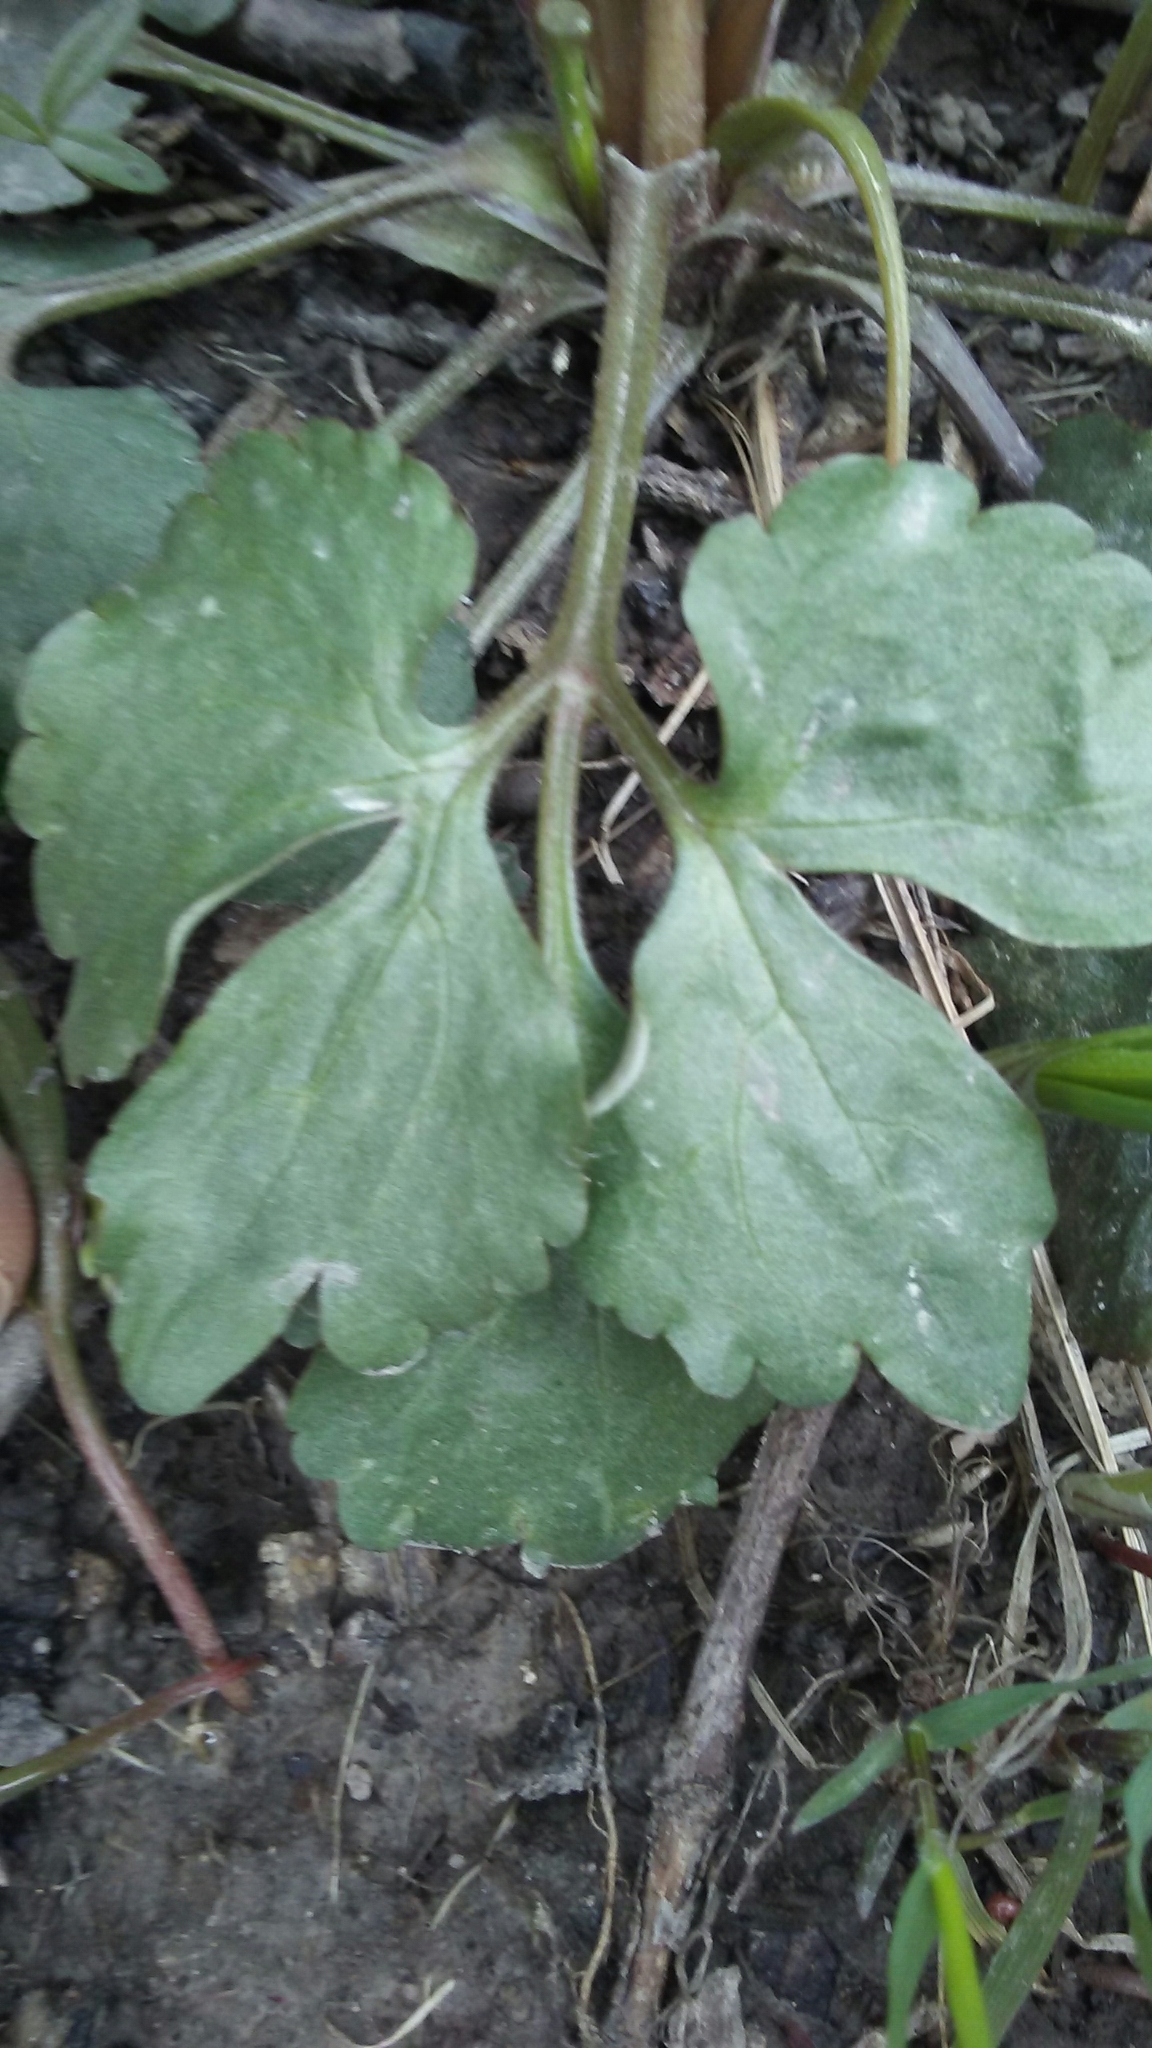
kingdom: Plantae
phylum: Tracheophyta
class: Magnoliopsida
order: Ranunculales
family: Ranunculaceae
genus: Ranunculus
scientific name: Ranunculus abortivus
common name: Early wood buttercup
